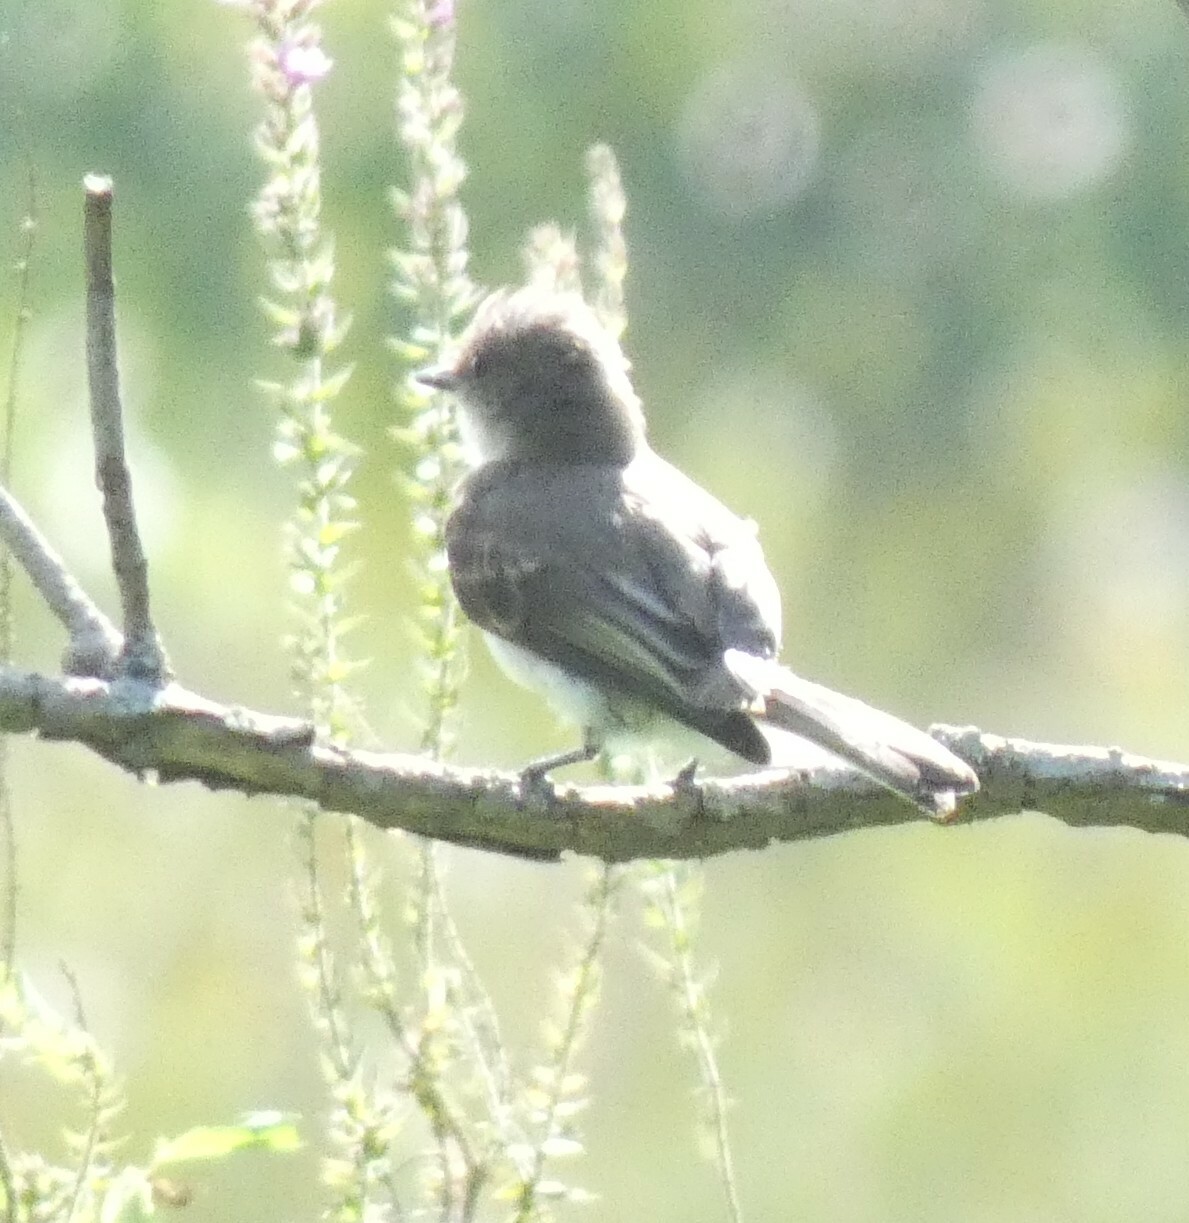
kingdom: Animalia
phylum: Chordata
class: Aves
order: Passeriformes
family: Tyrannidae
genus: Sayornis
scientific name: Sayornis phoebe
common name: Eastern phoebe
